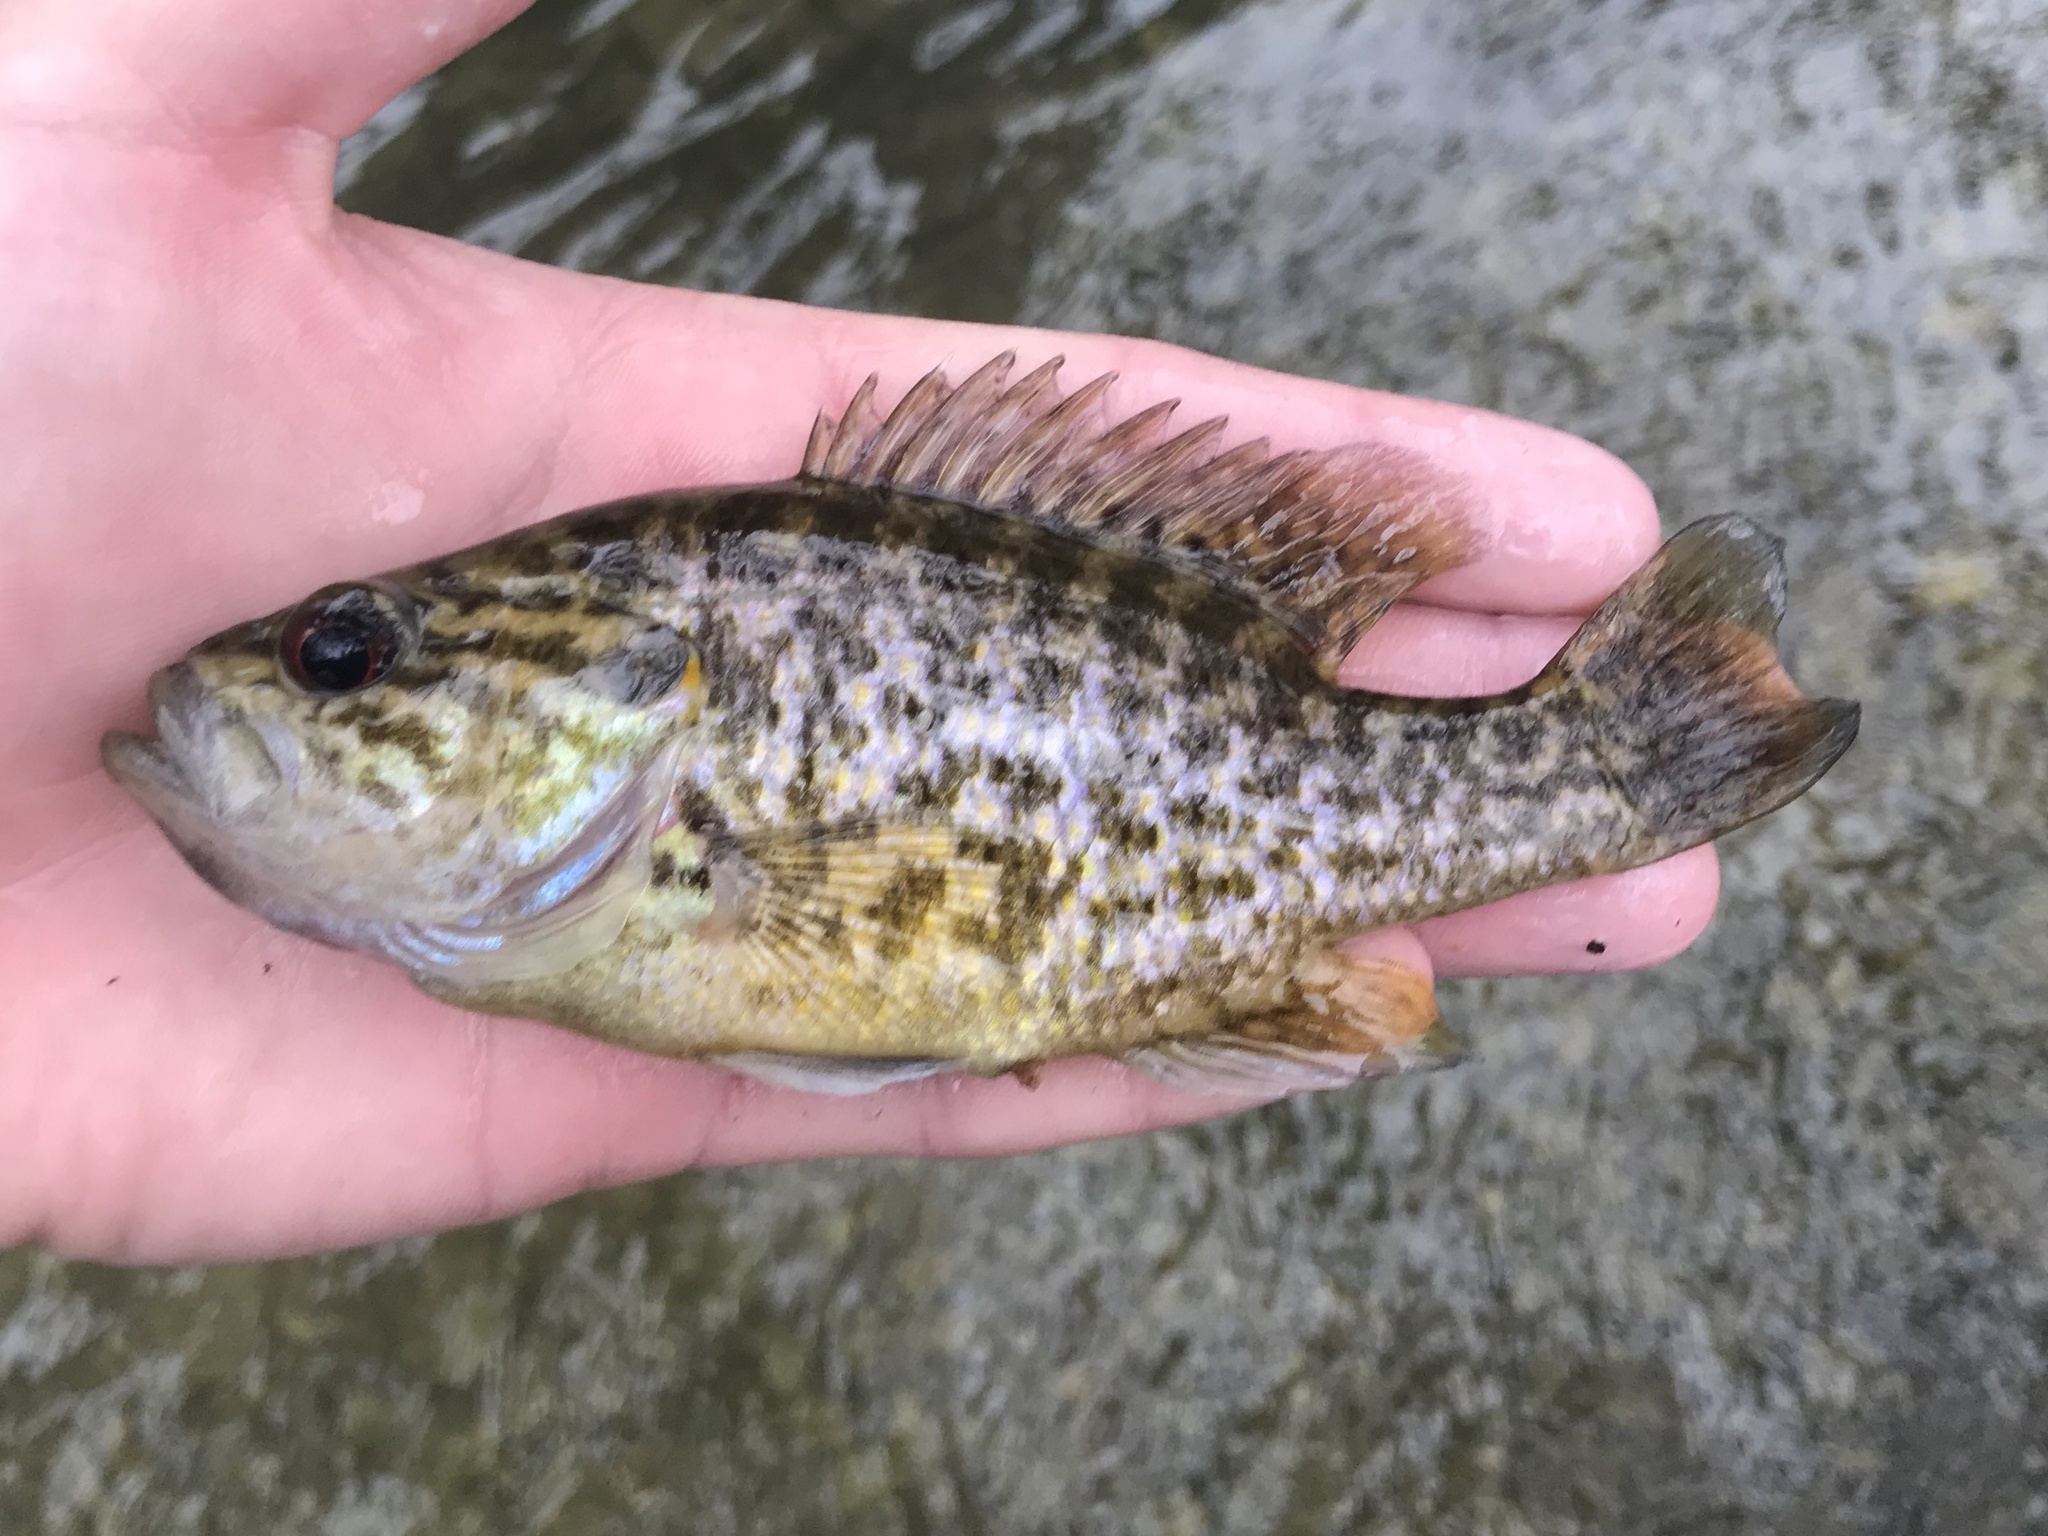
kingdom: Animalia
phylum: Chordata
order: Perciformes
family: Centrarchidae
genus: Lepomis
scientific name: Lepomis gulosus
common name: Warmouth
